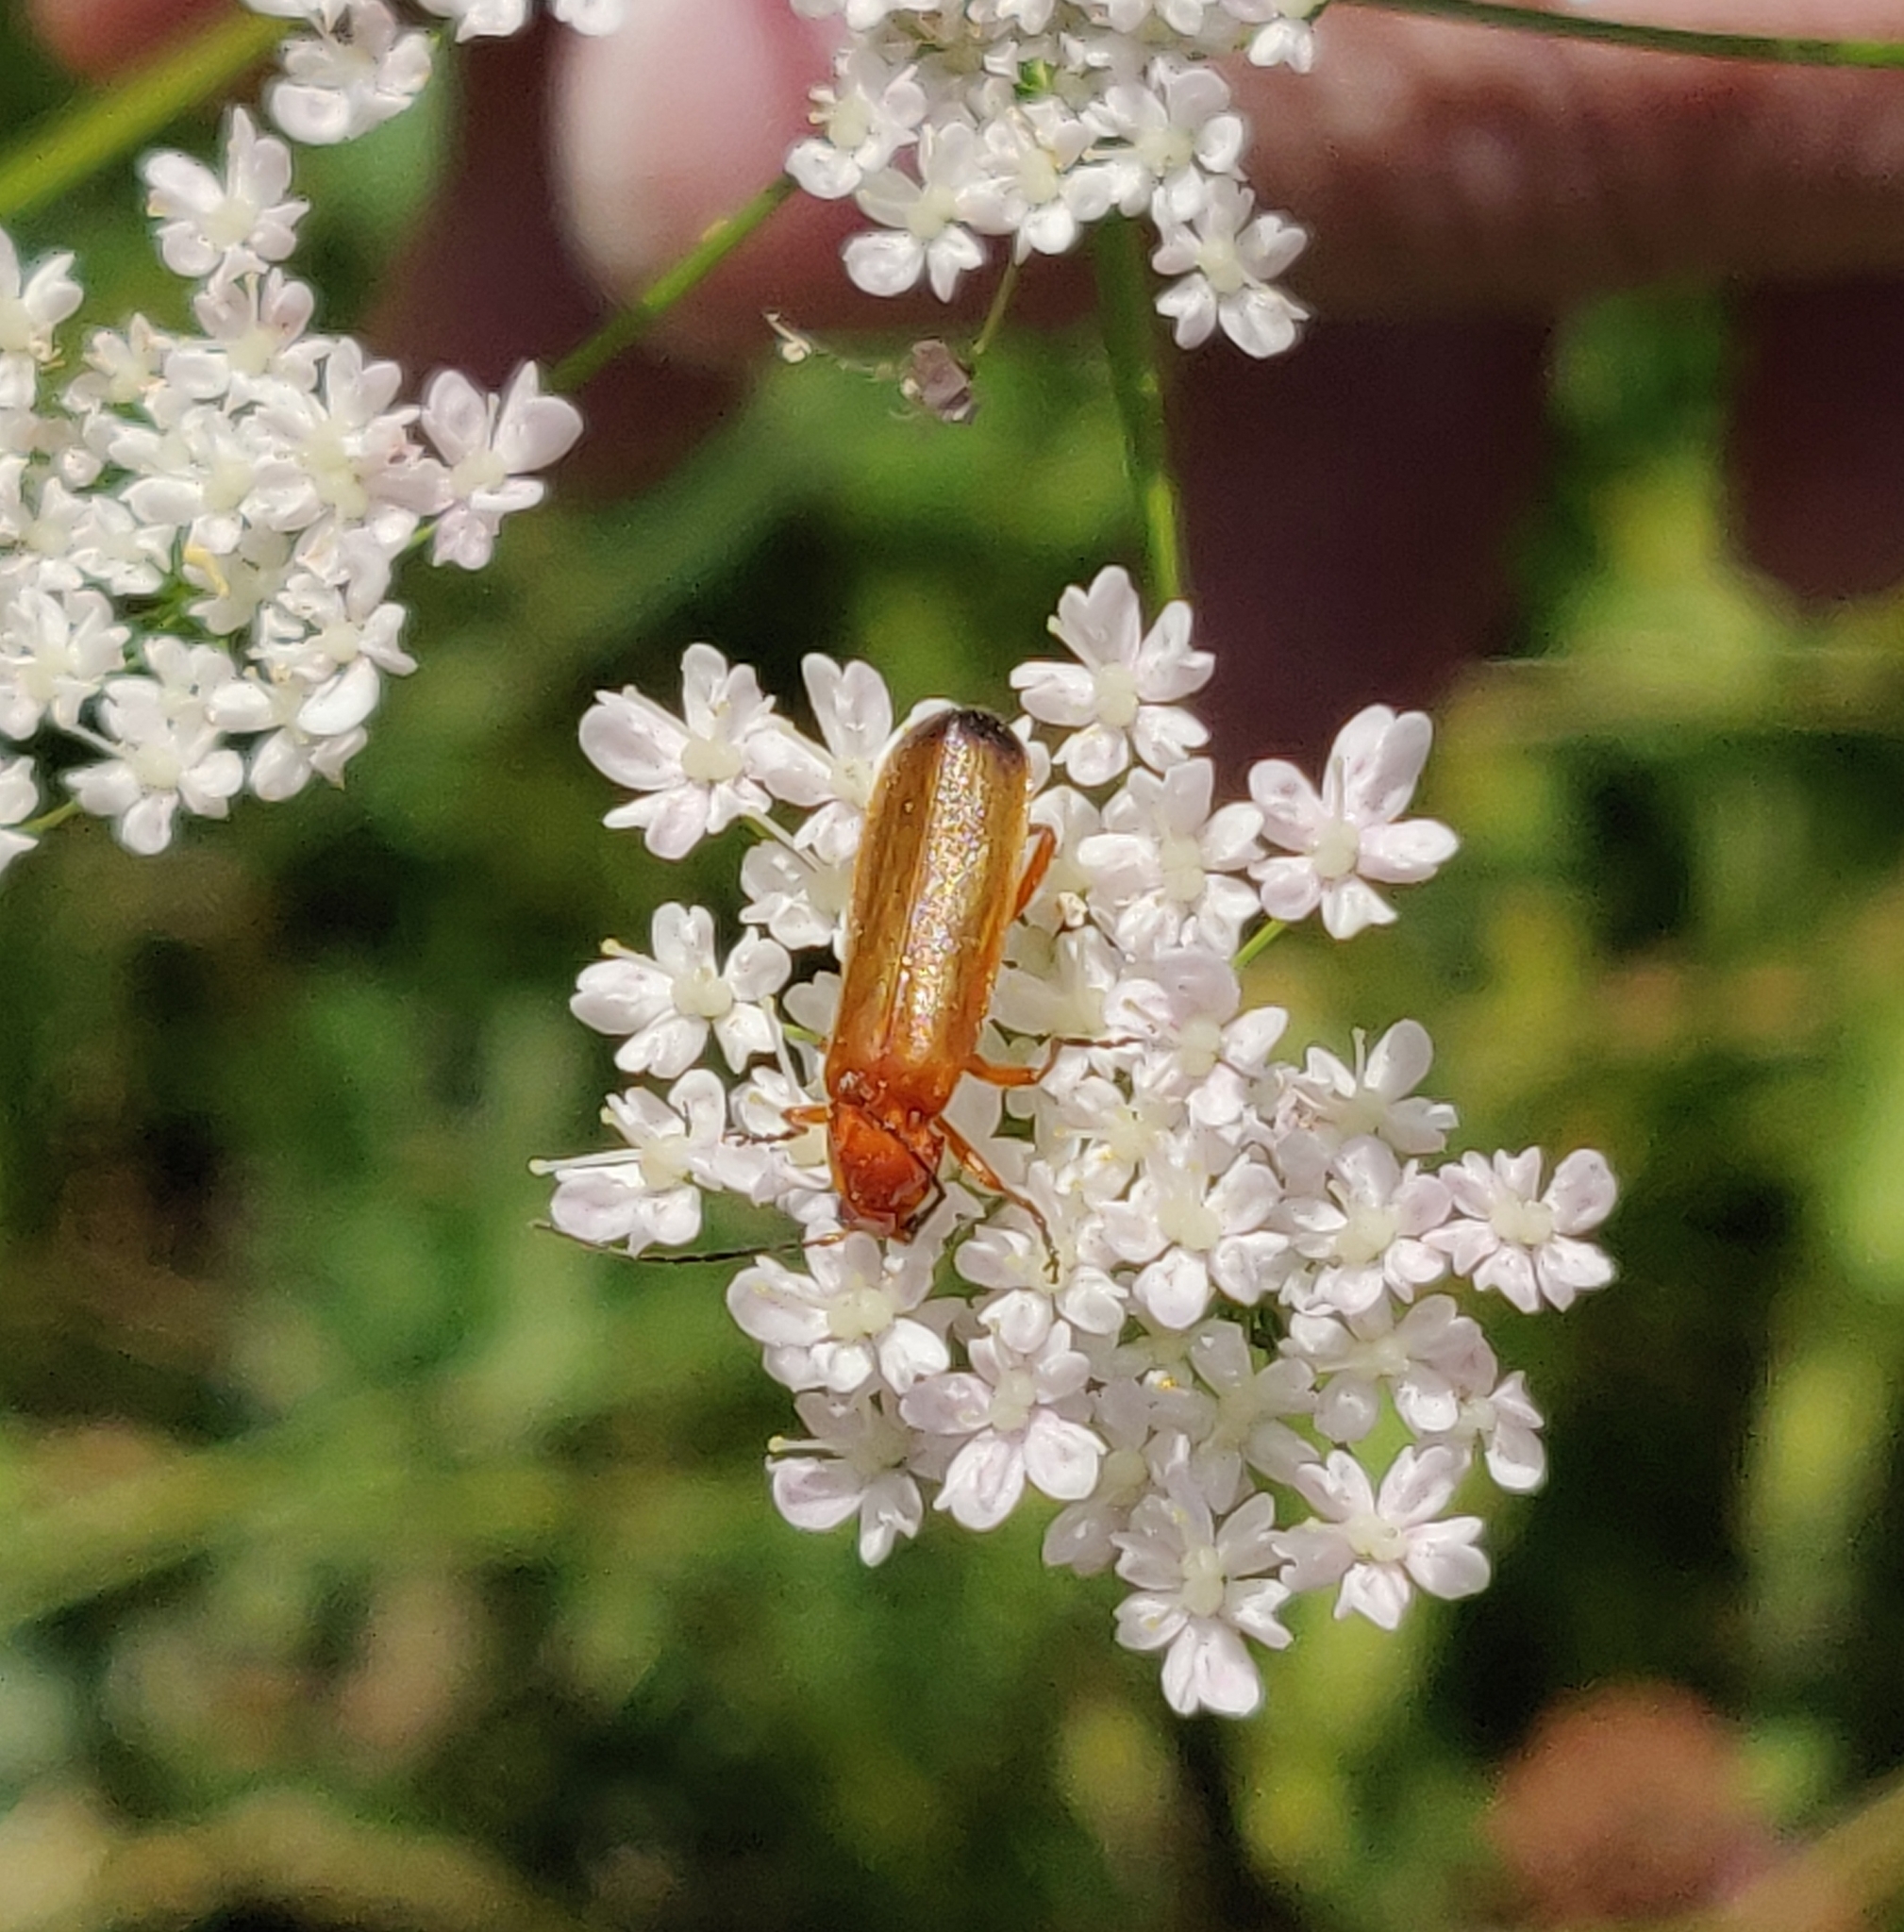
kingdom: Animalia
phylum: Arthropoda
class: Insecta
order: Coleoptera
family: Cantharidae
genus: Rhagonycha
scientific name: Rhagonycha fulva
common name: Common red soldier beetle
